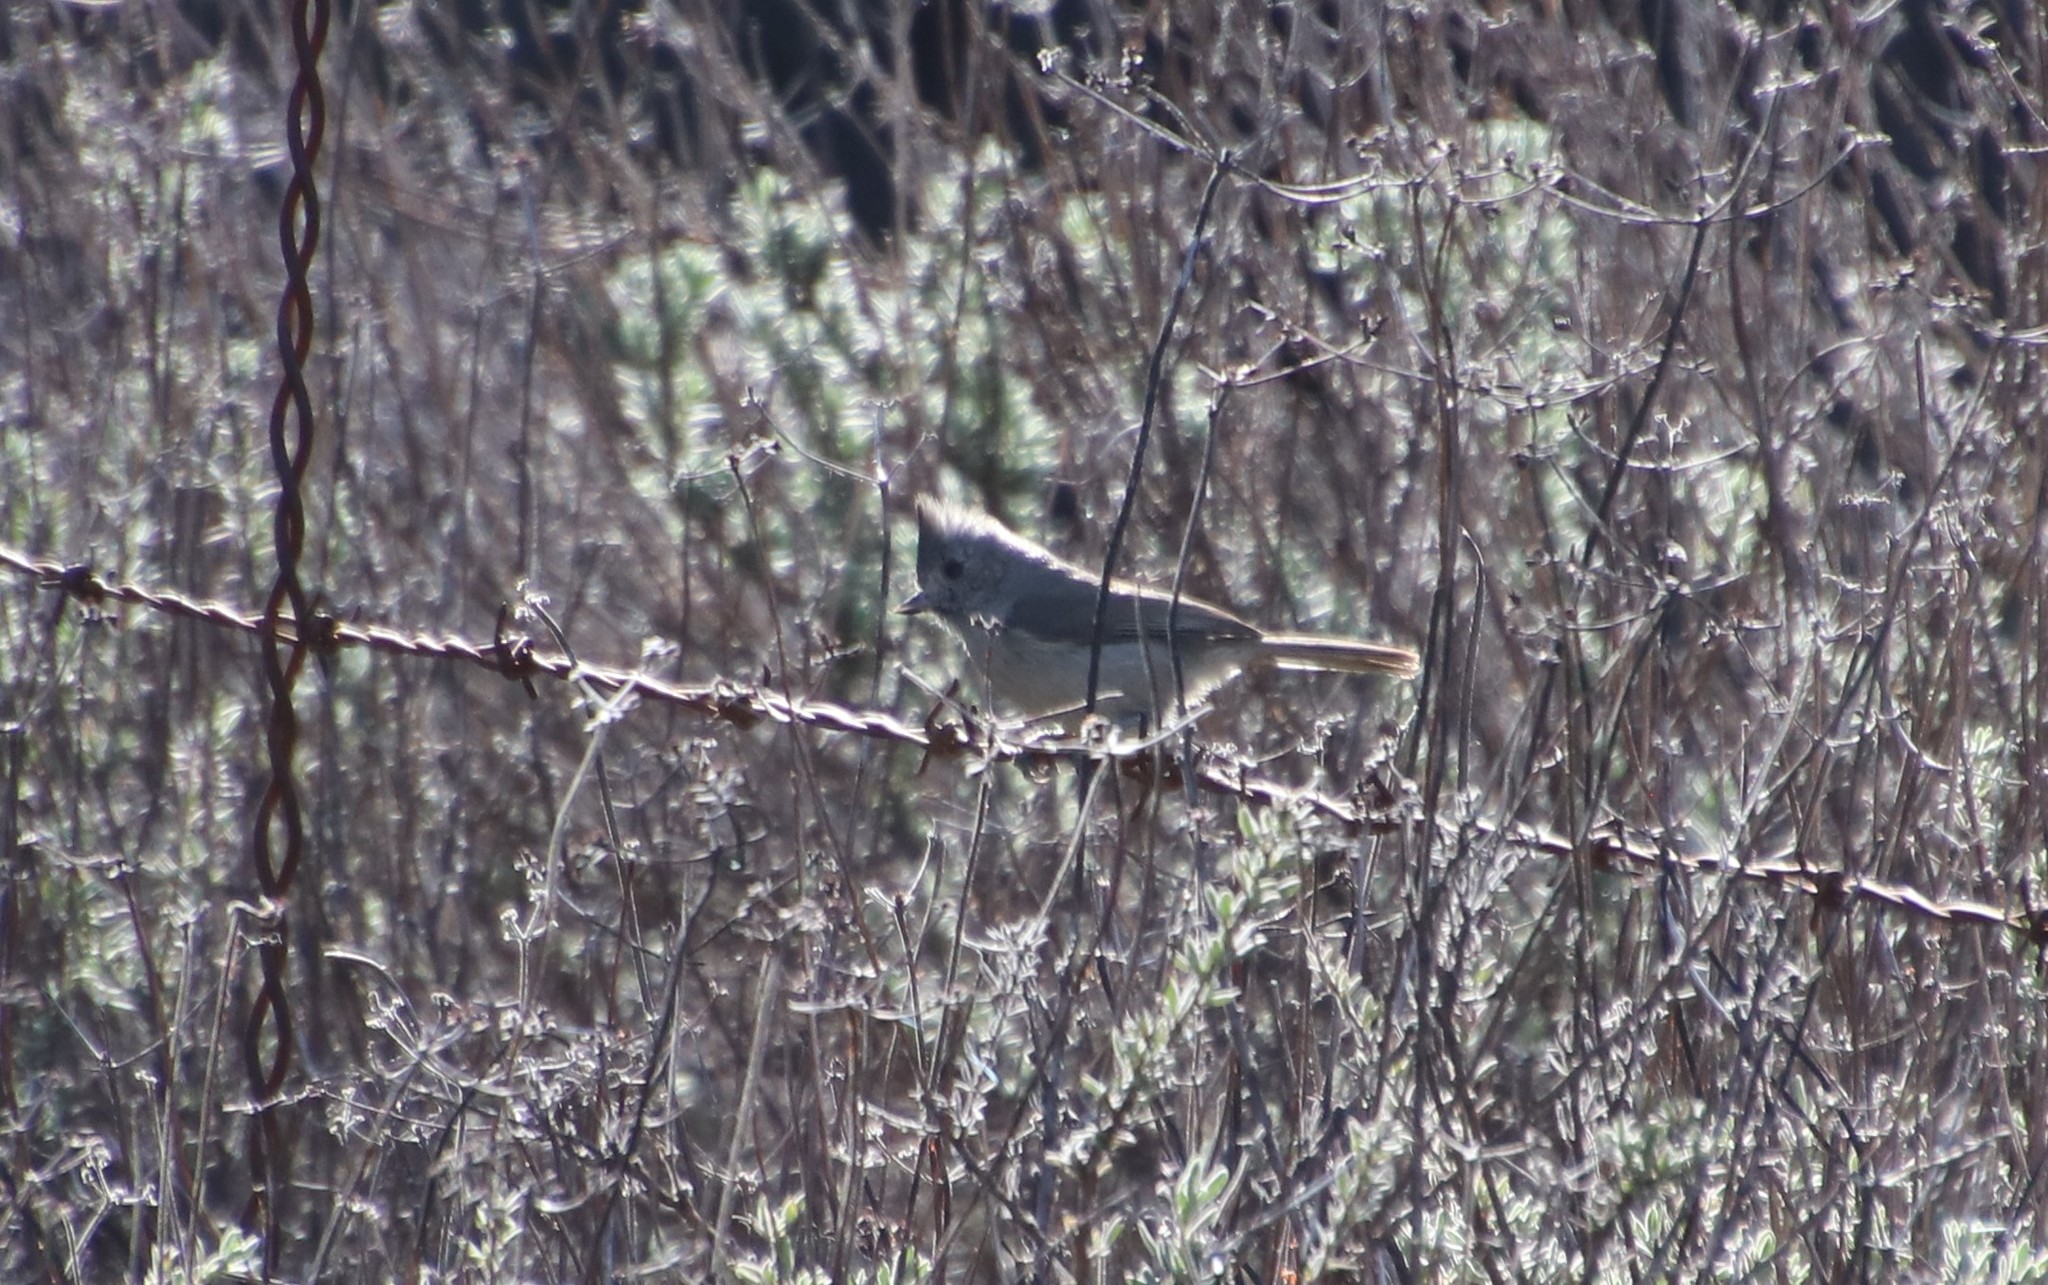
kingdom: Animalia
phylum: Chordata
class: Aves
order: Passeriformes
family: Paridae
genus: Baeolophus
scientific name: Baeolophus inornatus
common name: Oak titmouse
